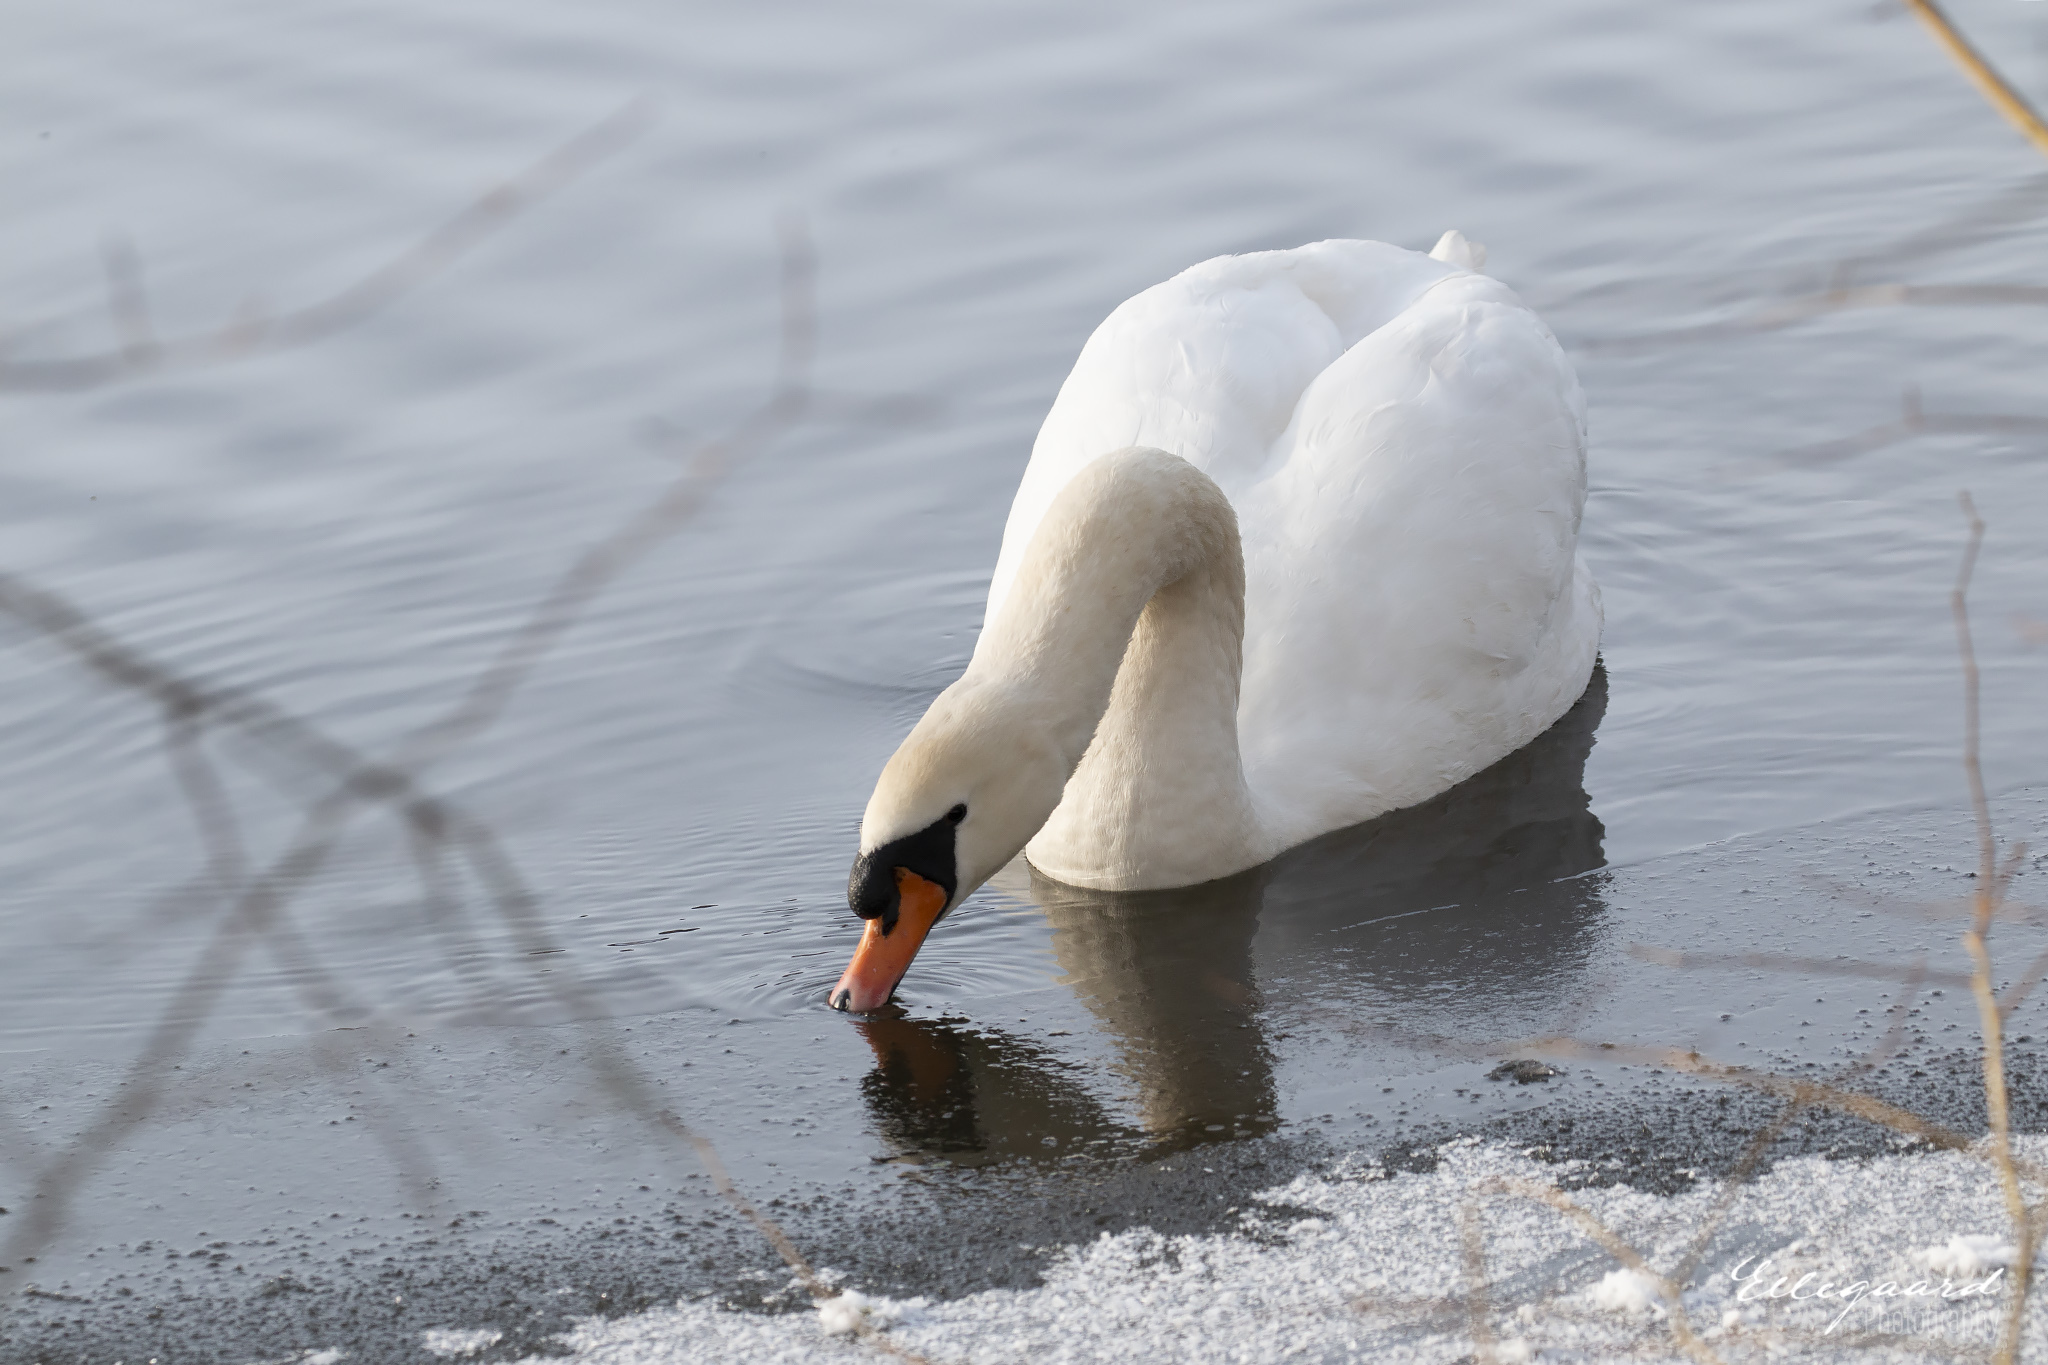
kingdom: Animalia
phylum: Chordata
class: Aves
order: Anseriformes
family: Anatidae
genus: Cygnus
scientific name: Cygnus olor
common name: Mute swan
